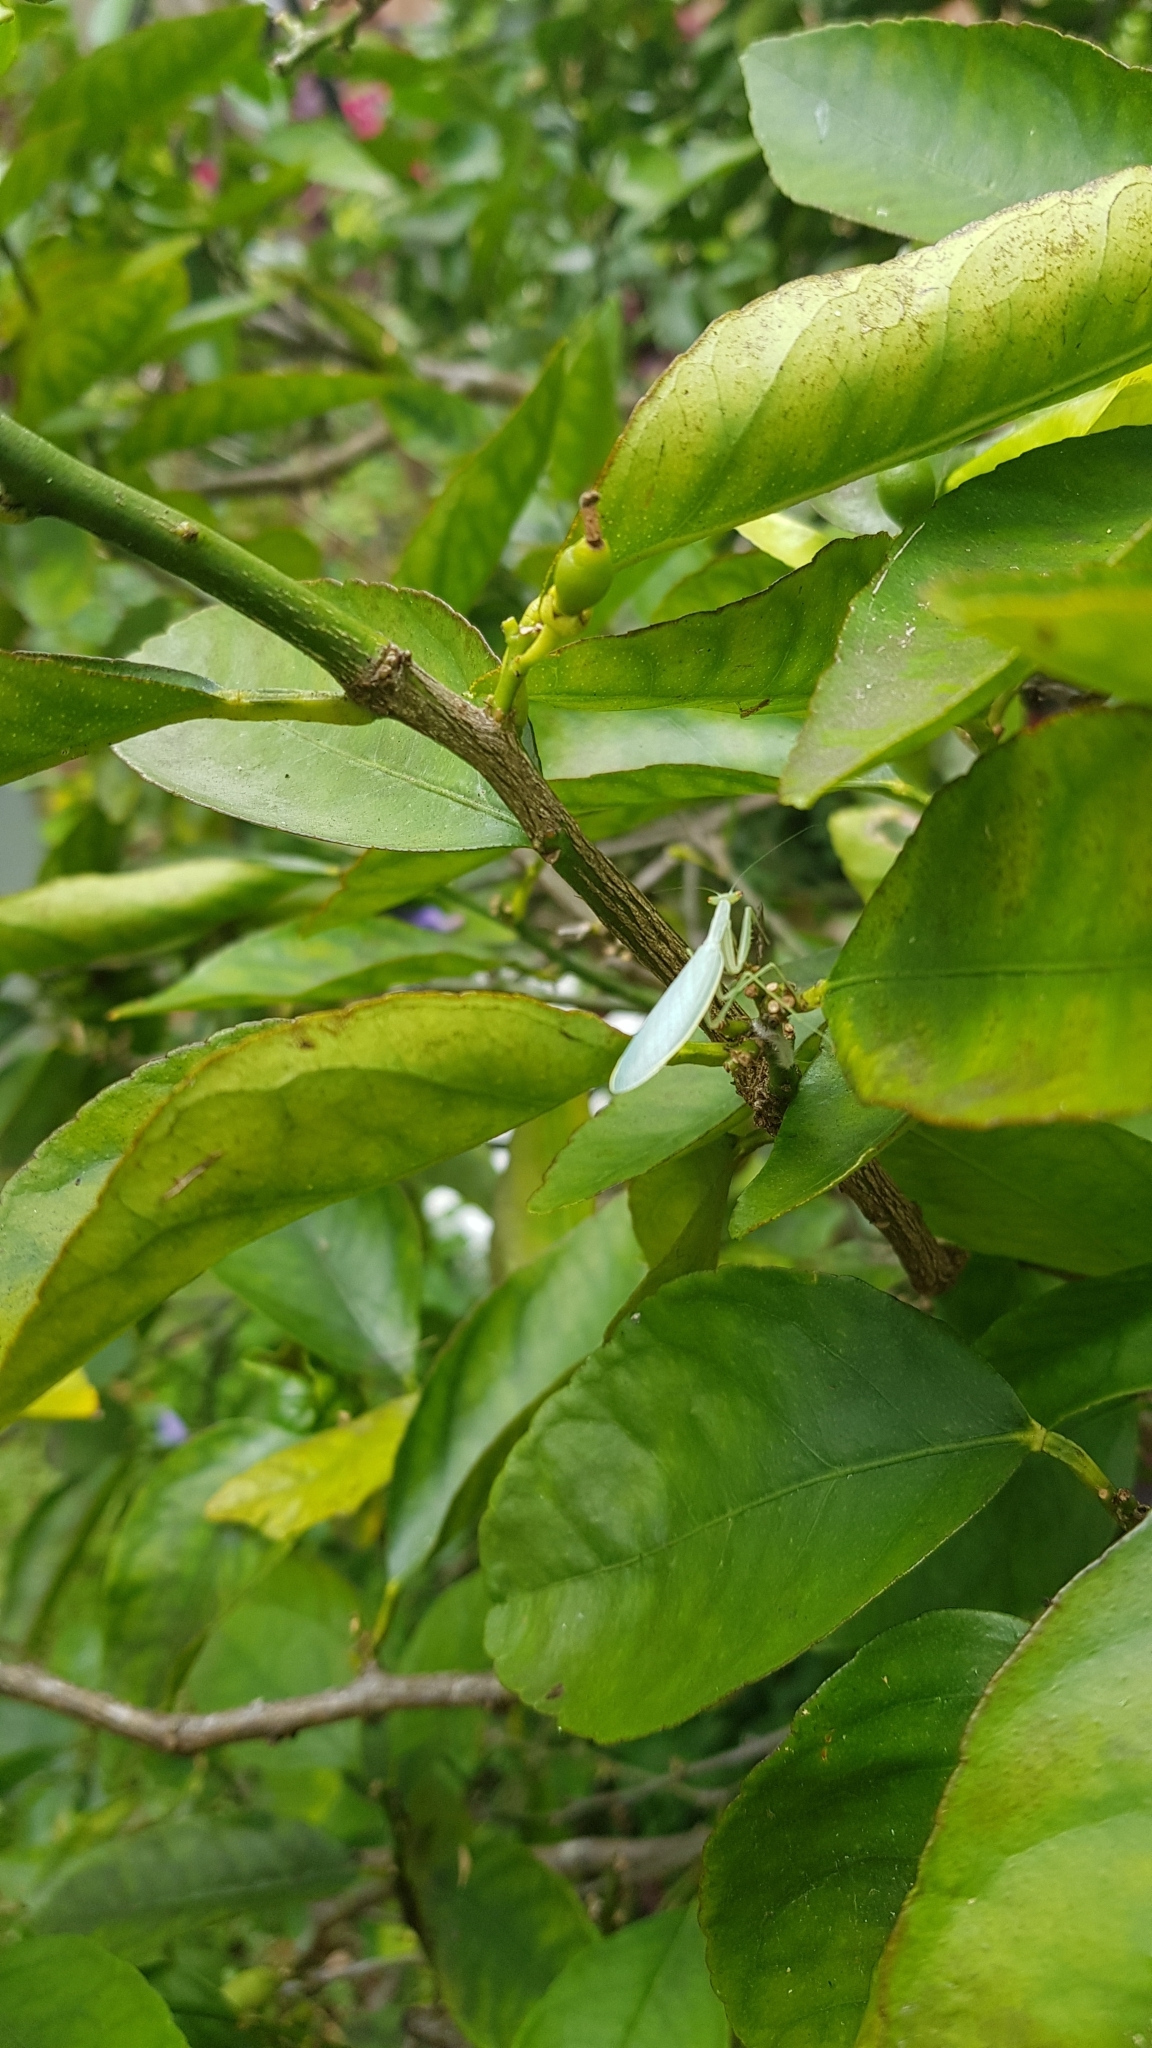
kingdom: Animalia
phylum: Arthropoda
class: Insecta
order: Mantodea
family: Nanomantidae
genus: Kongobatha
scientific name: Kongobatha diademata
